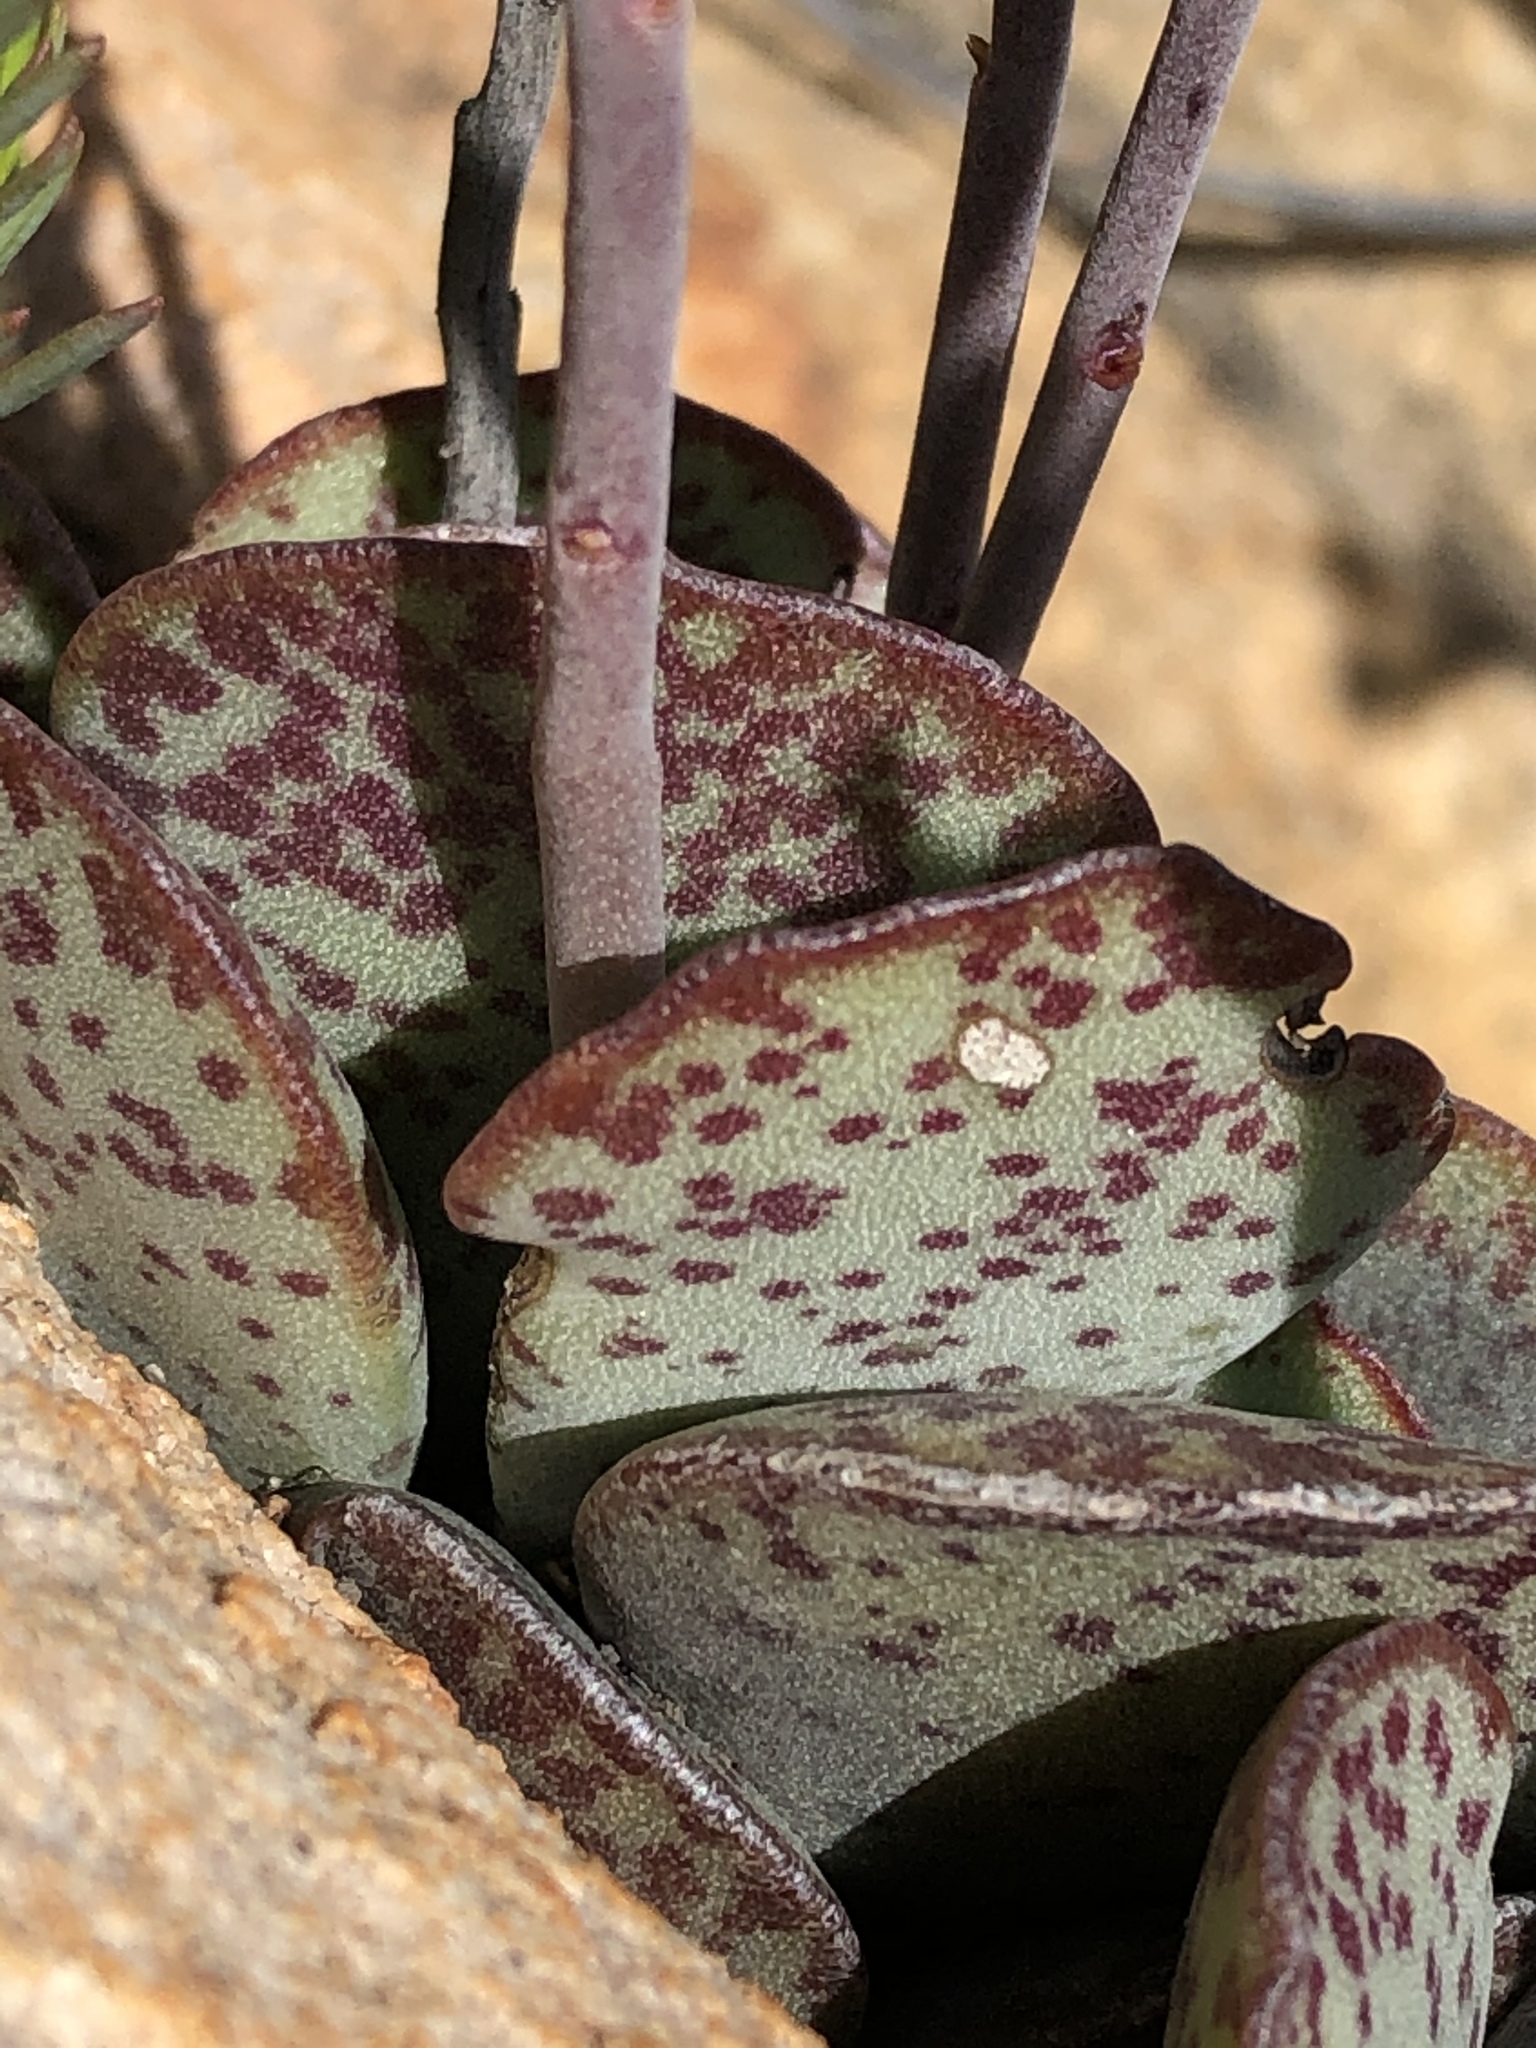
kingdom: Plantae
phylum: Tracheophyta
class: Magnoliopsida
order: Saxifragales
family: Crassulaceae
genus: Adromischus
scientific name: Adromischus maculatus
